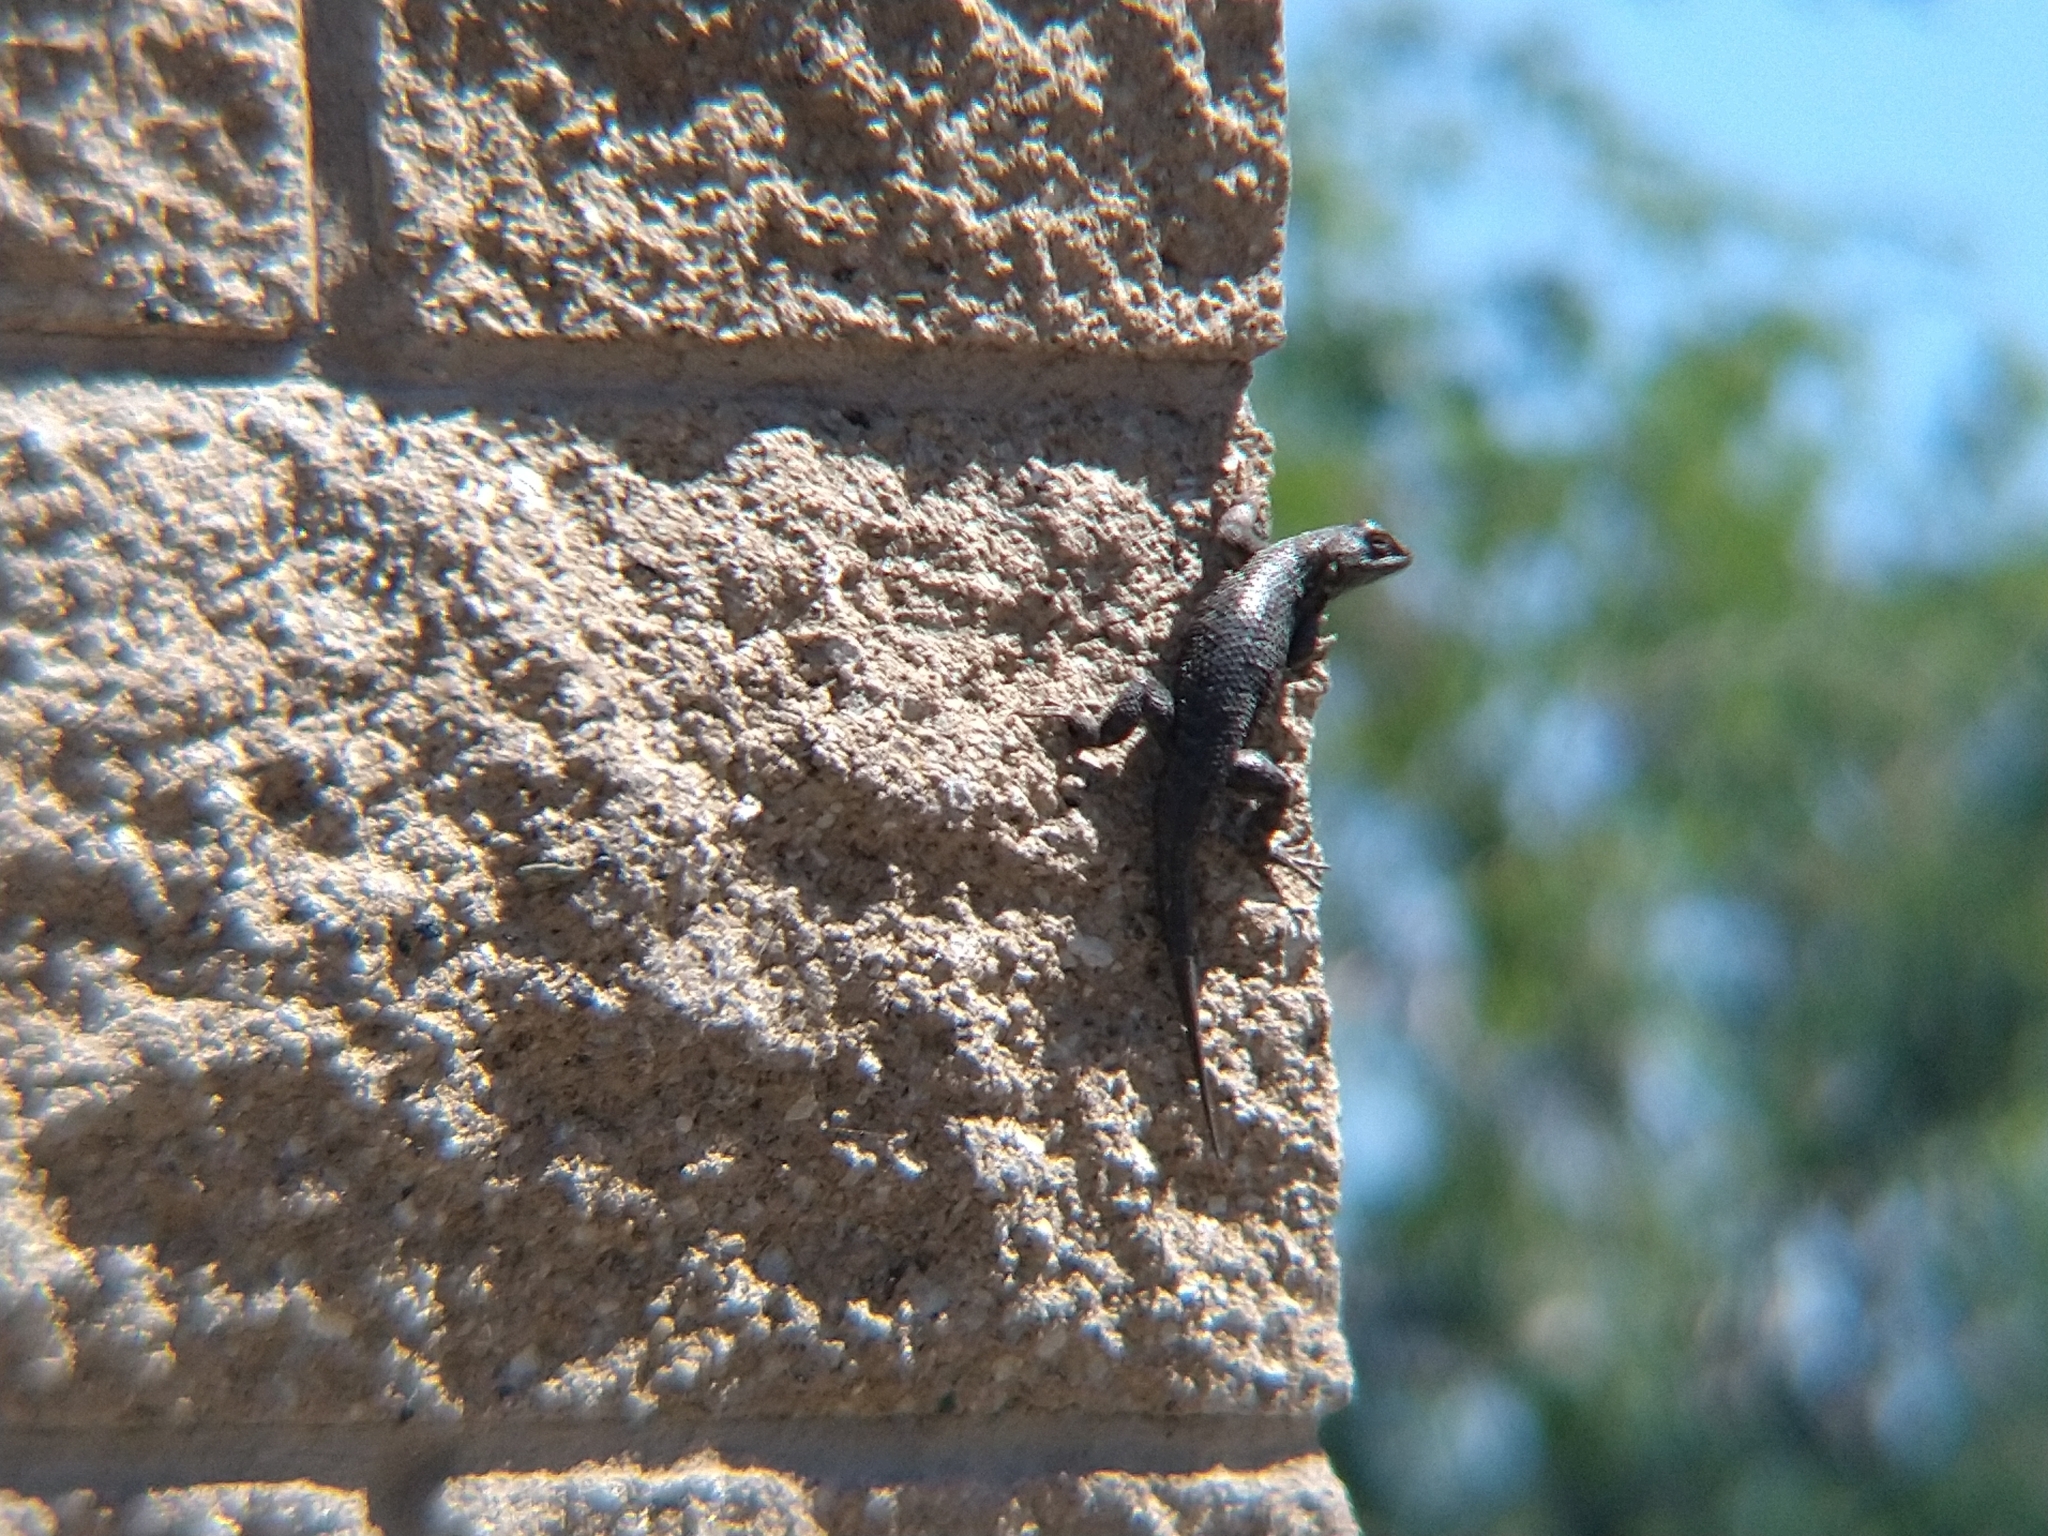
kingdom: Animalia
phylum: Chordata
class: Squamata
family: Phrynosomatidae
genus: Sceloporus
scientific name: Sceloporus occidentalis
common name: Western fence lizard
